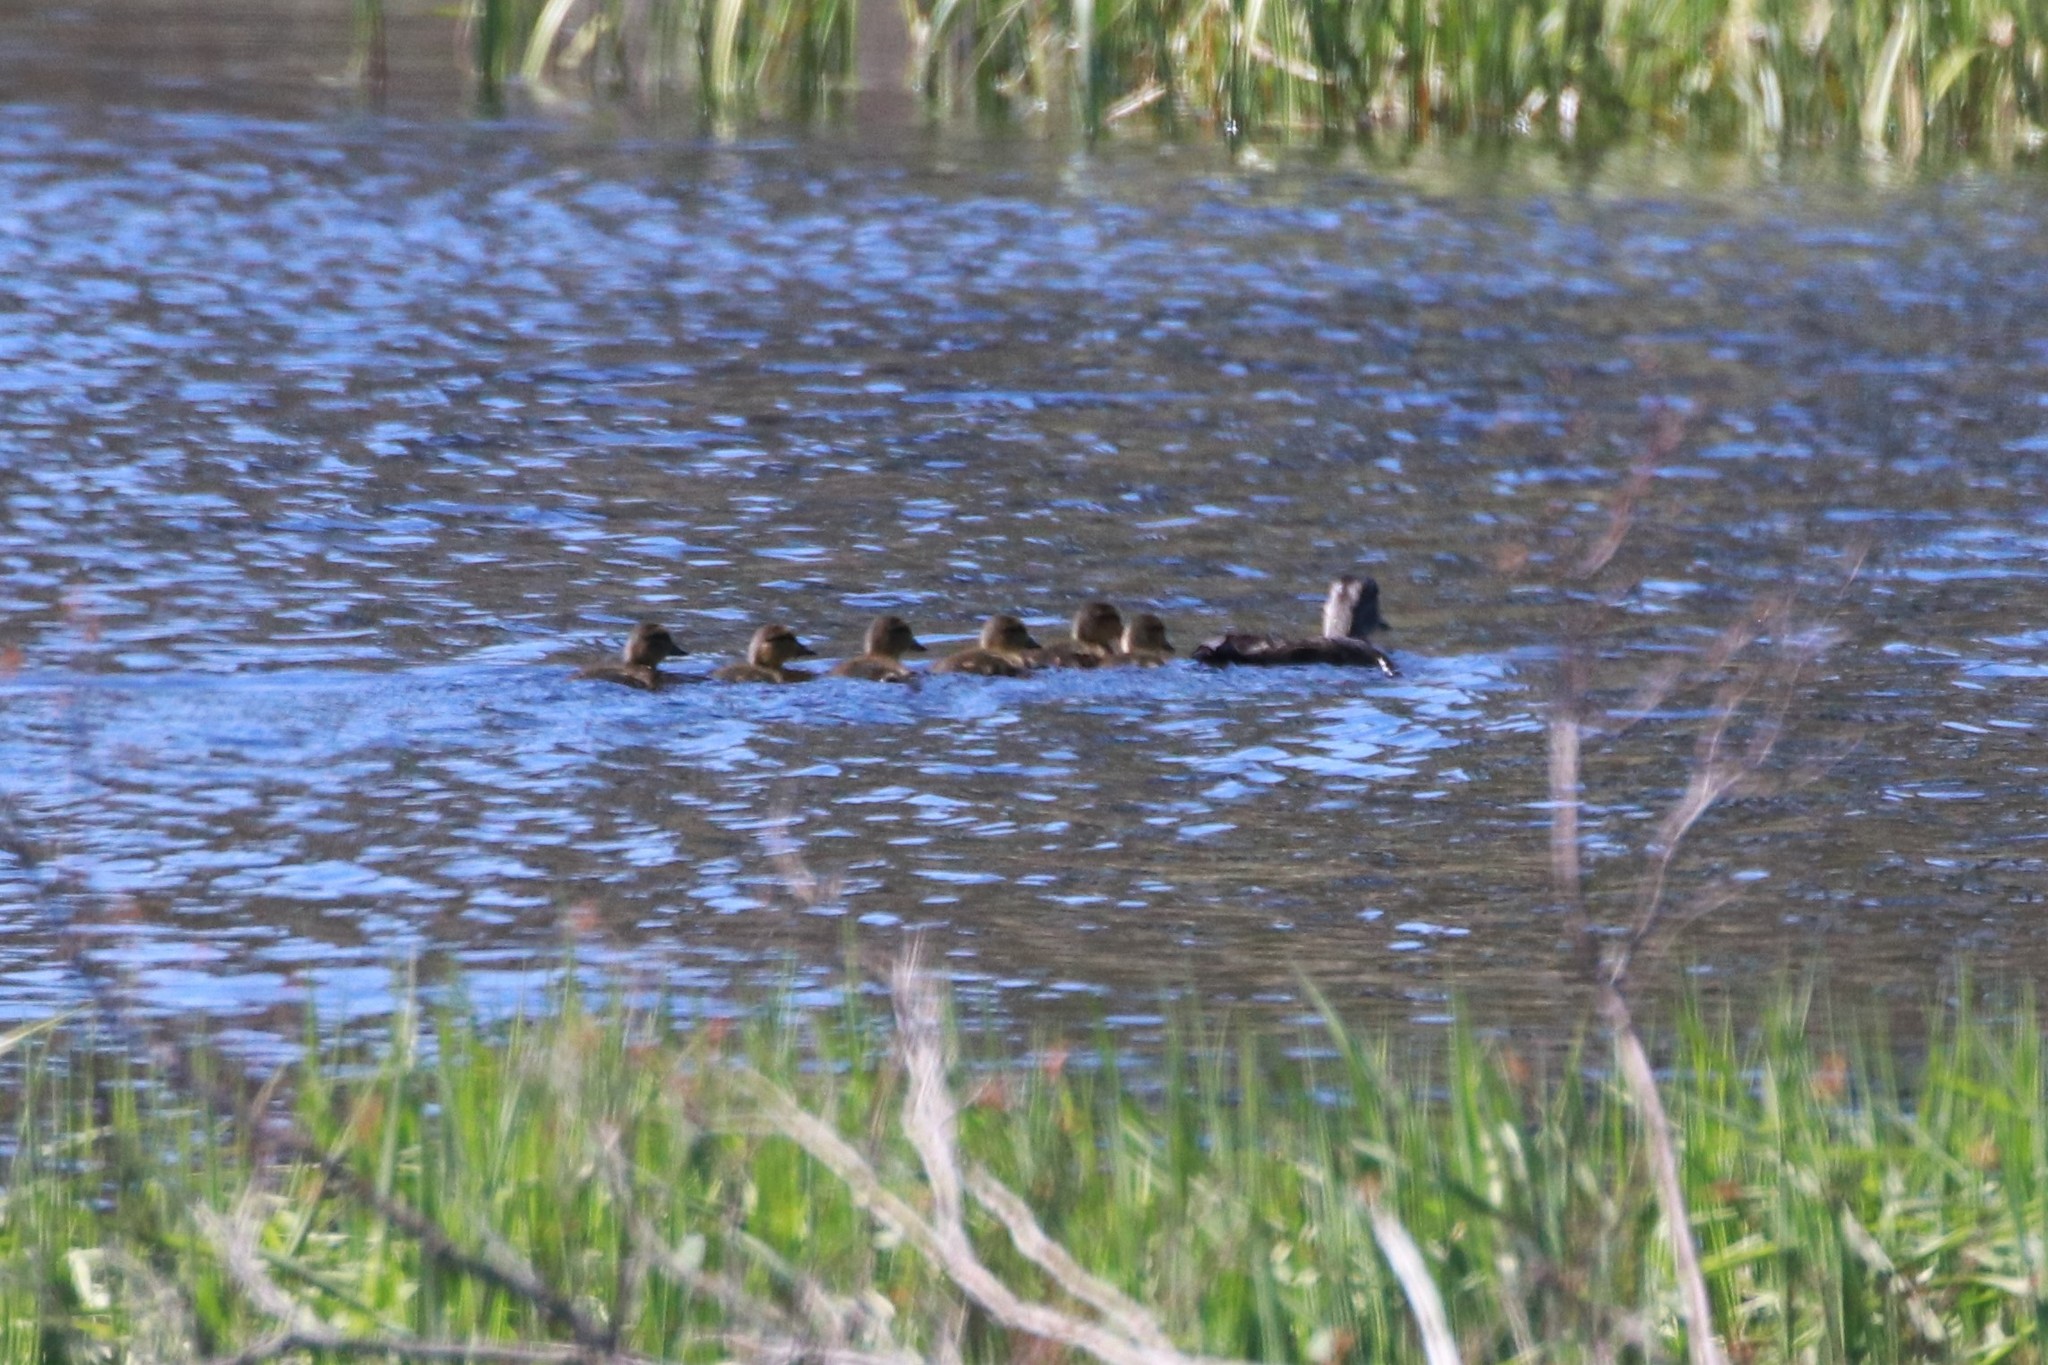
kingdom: Animalia
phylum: Chordata
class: Aves
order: Anseriformes
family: Anatidae
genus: Anas
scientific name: Anas rubripes
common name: American black duck
